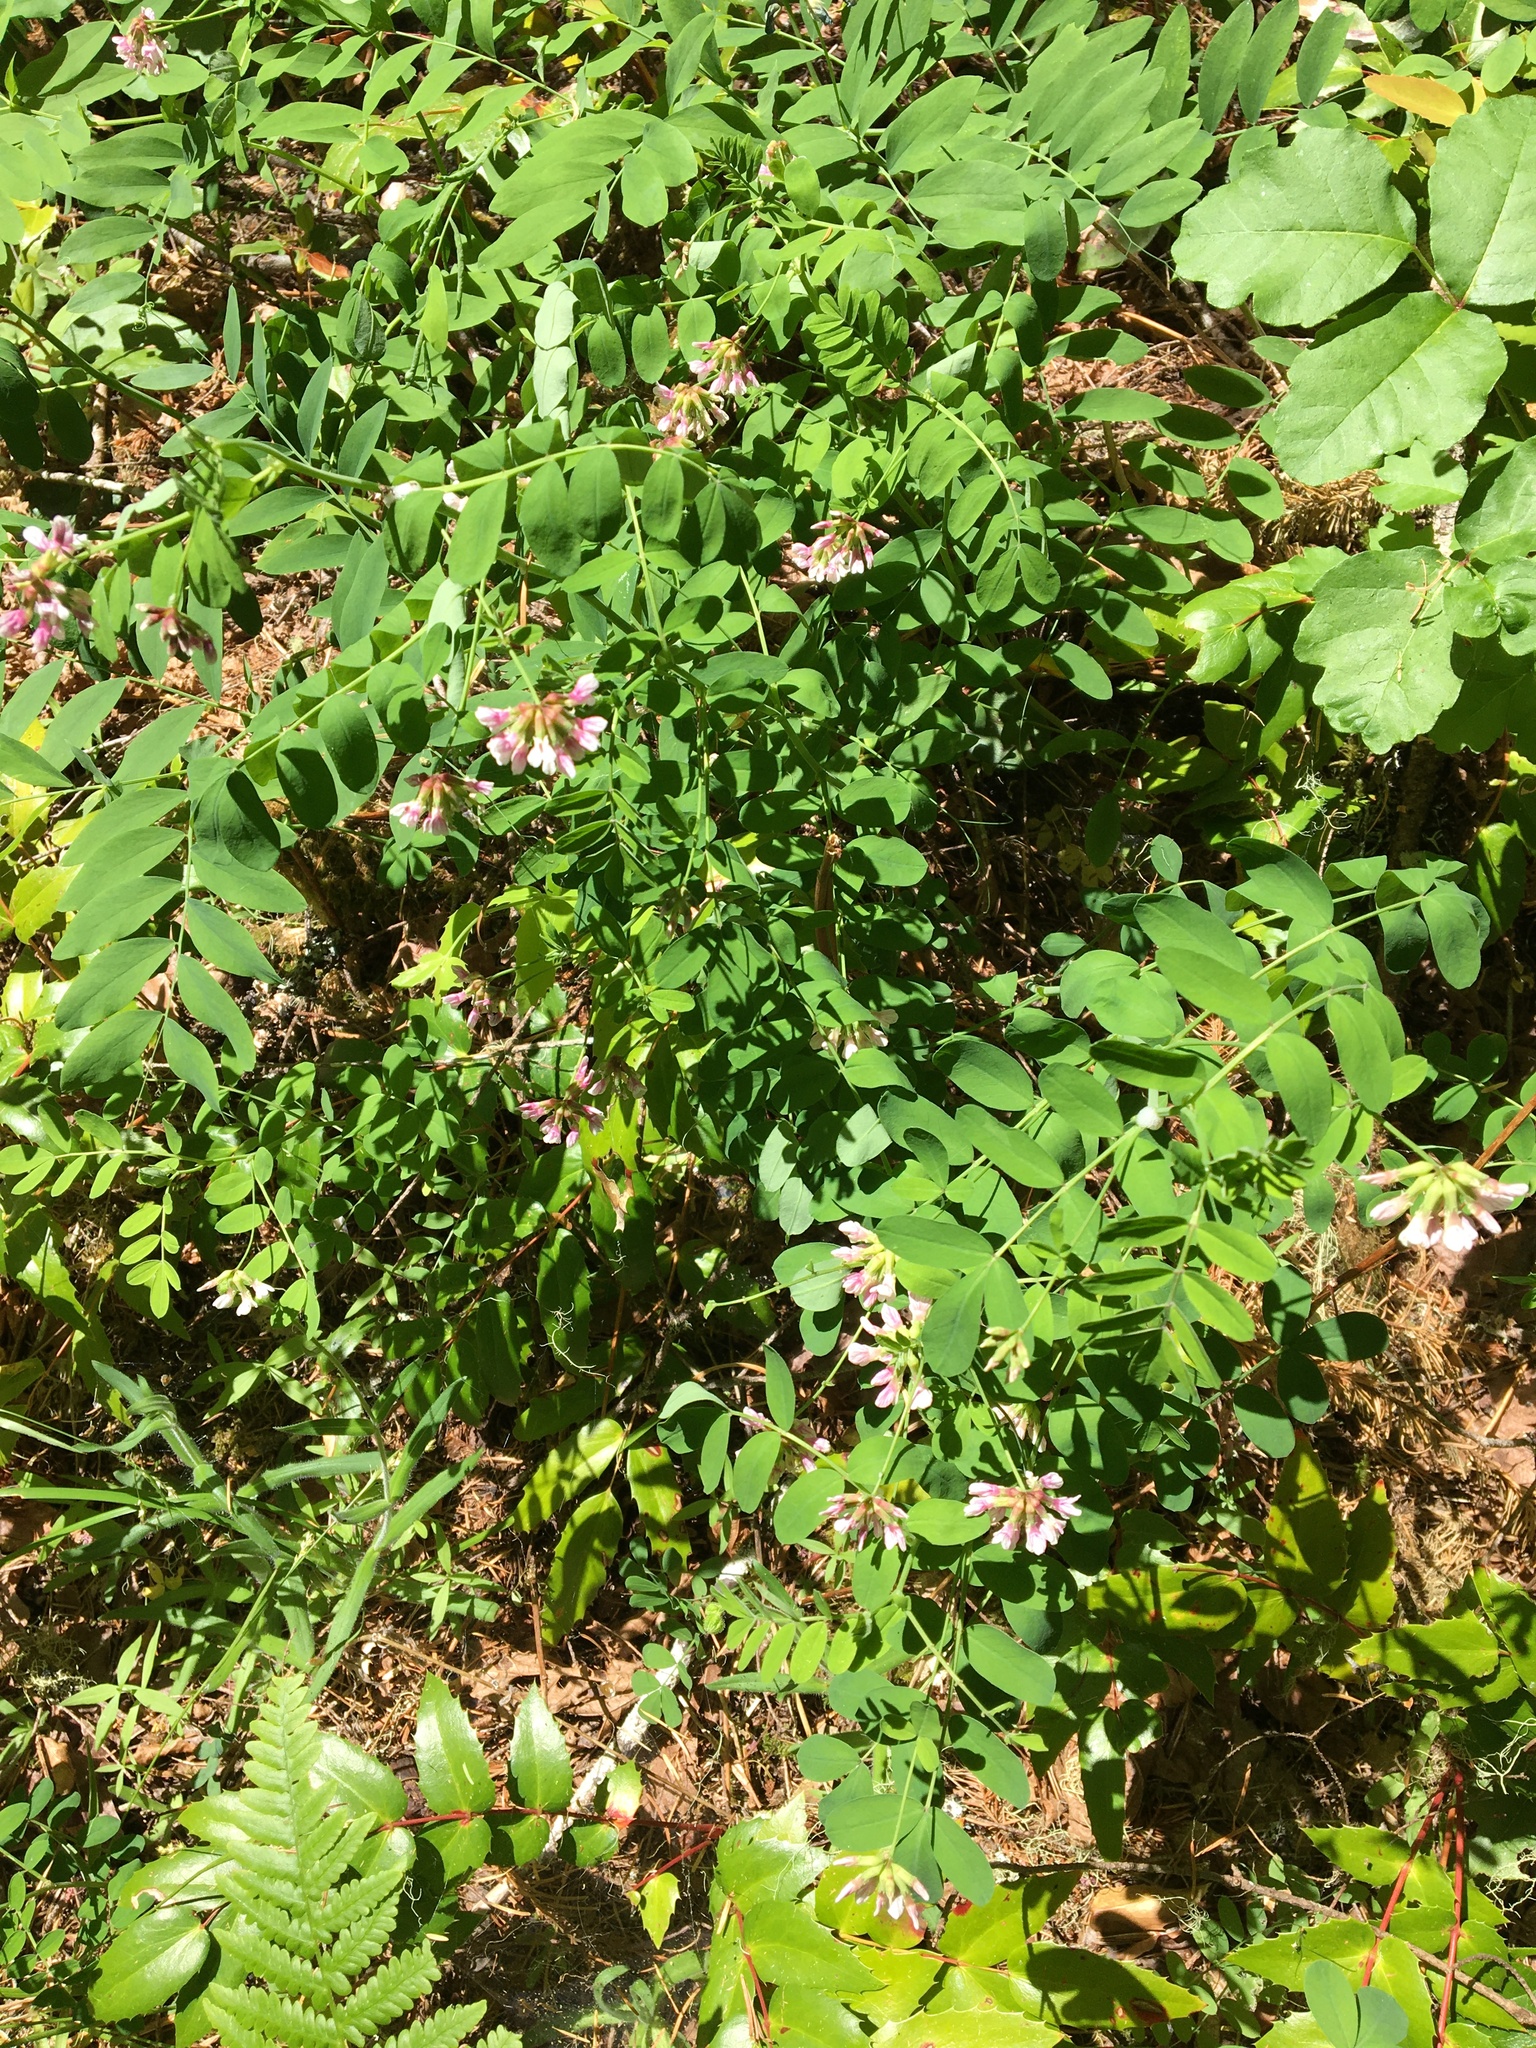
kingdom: Plantae
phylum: Tracheophyta
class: Magnoliopsida
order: Fabales
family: Fabaceae
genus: Hosackia
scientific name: Hosackia rosea
